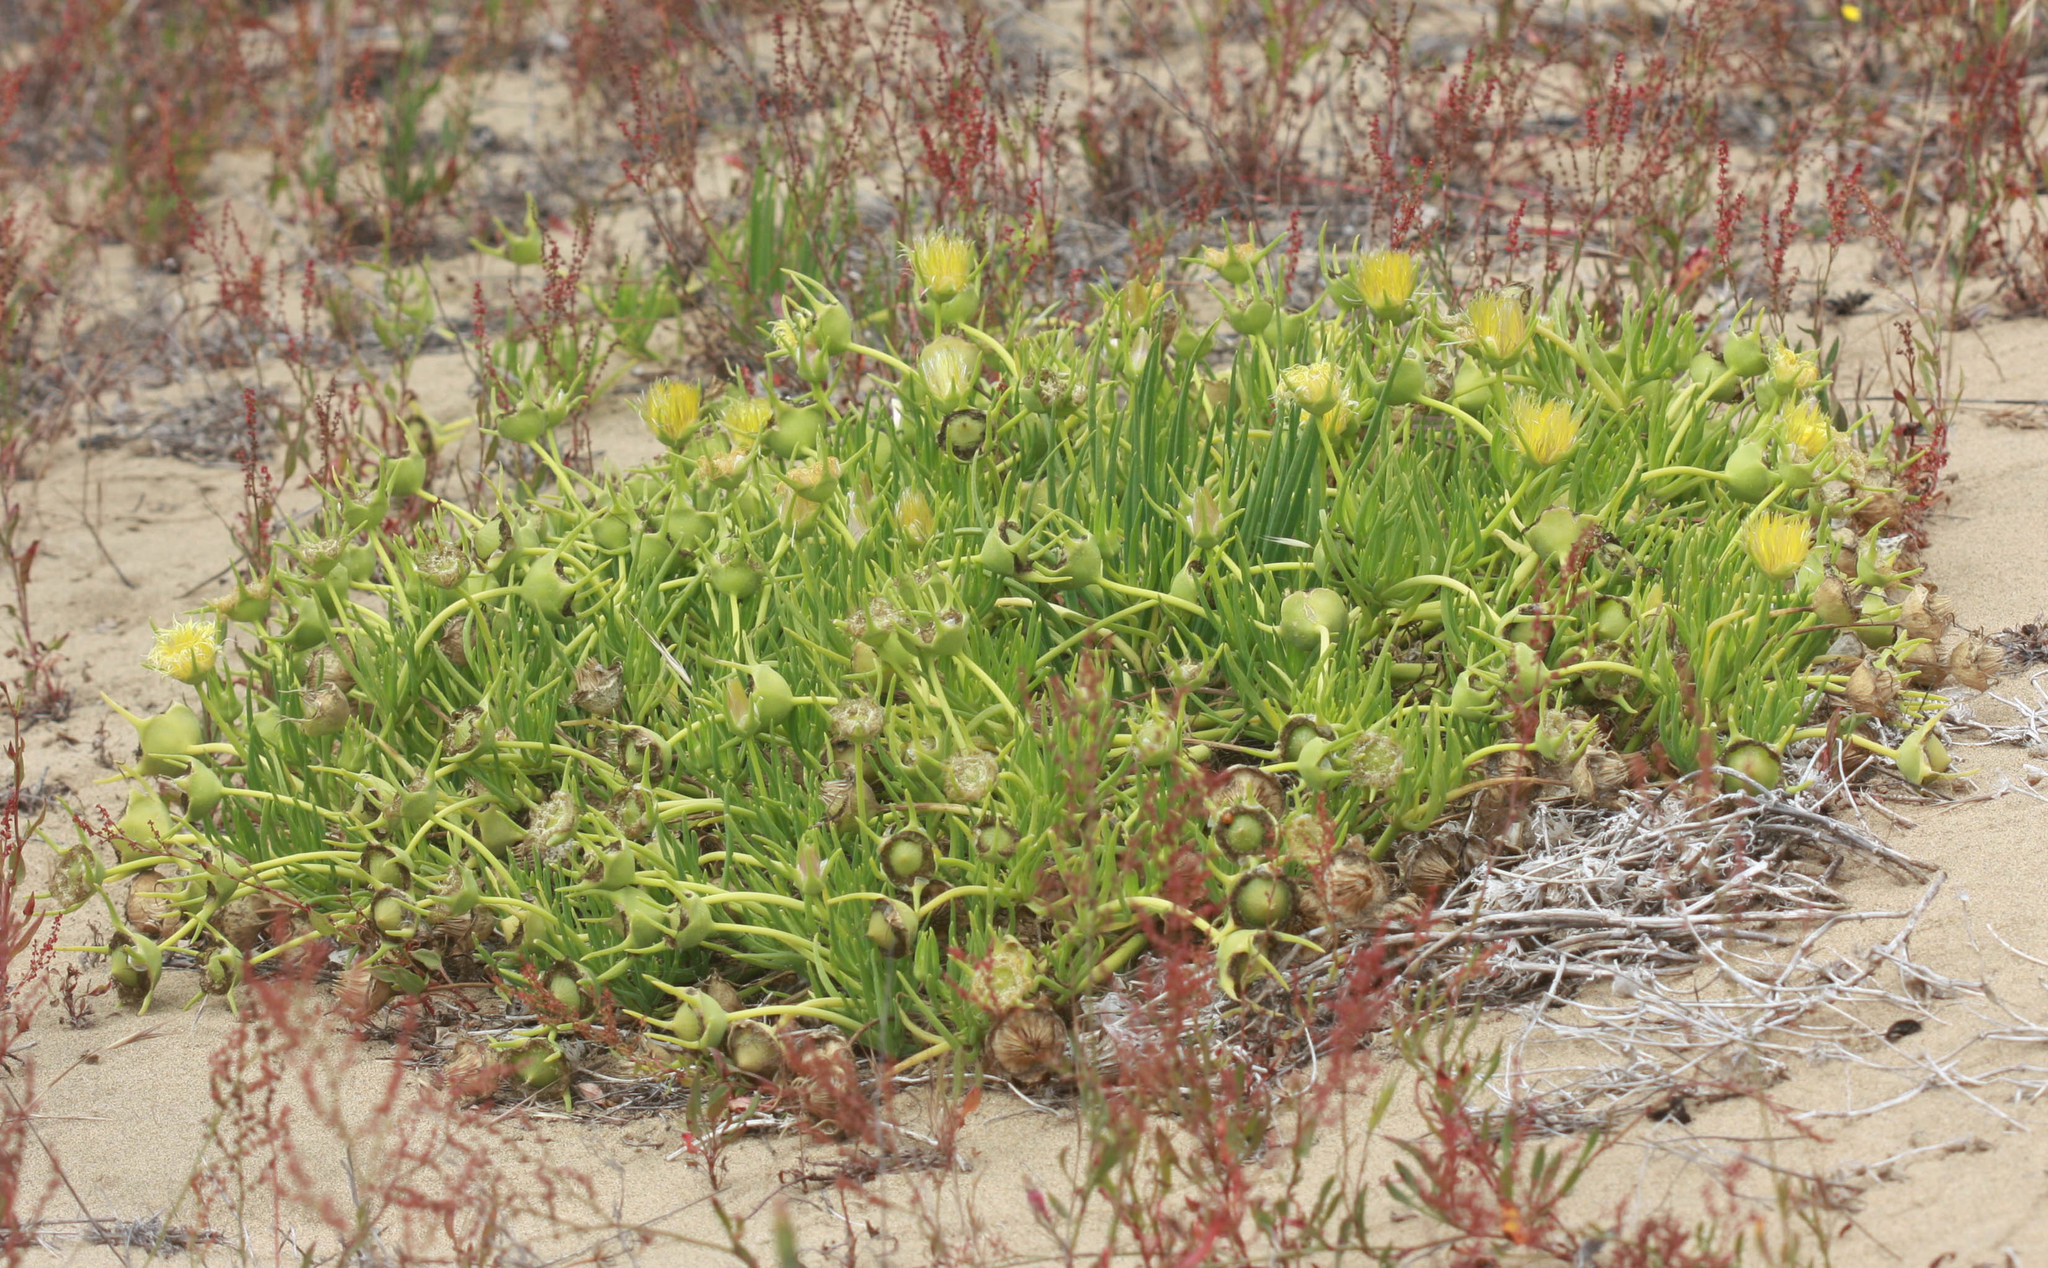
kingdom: Plantae
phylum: Tracheophyta
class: Magnoliopsida
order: Caryophyllales
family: Aizoaceae
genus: Conicosia
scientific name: Conicosia pugioniformis
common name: Narrow-leaved iceplant
